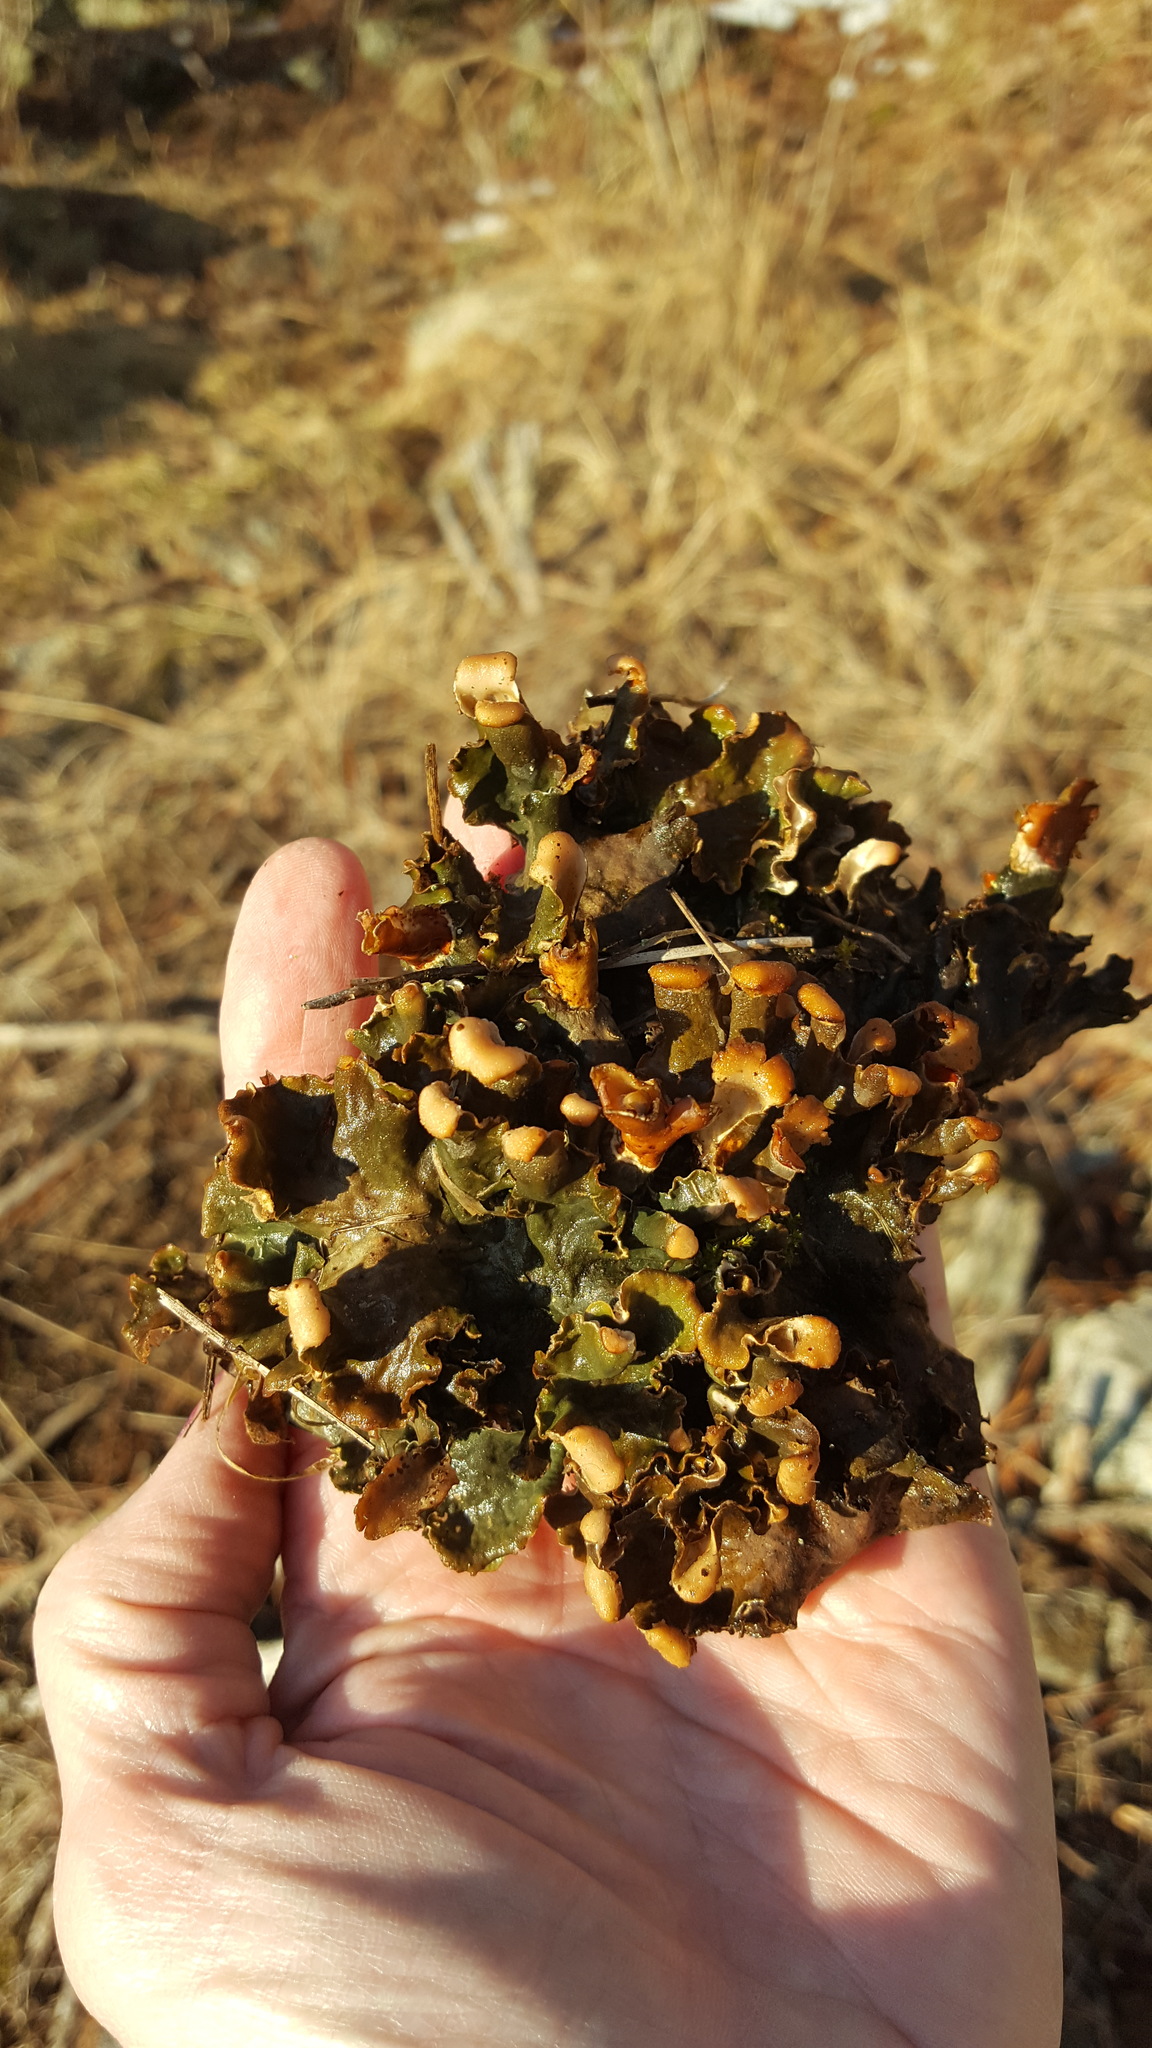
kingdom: Fungi
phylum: Ascomycota
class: Lecanoromycetes
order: Peltigerales
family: Peltigeraceae
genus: Peltigera
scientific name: Peltigera polydactylon
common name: Many-fruited pelt lichen
